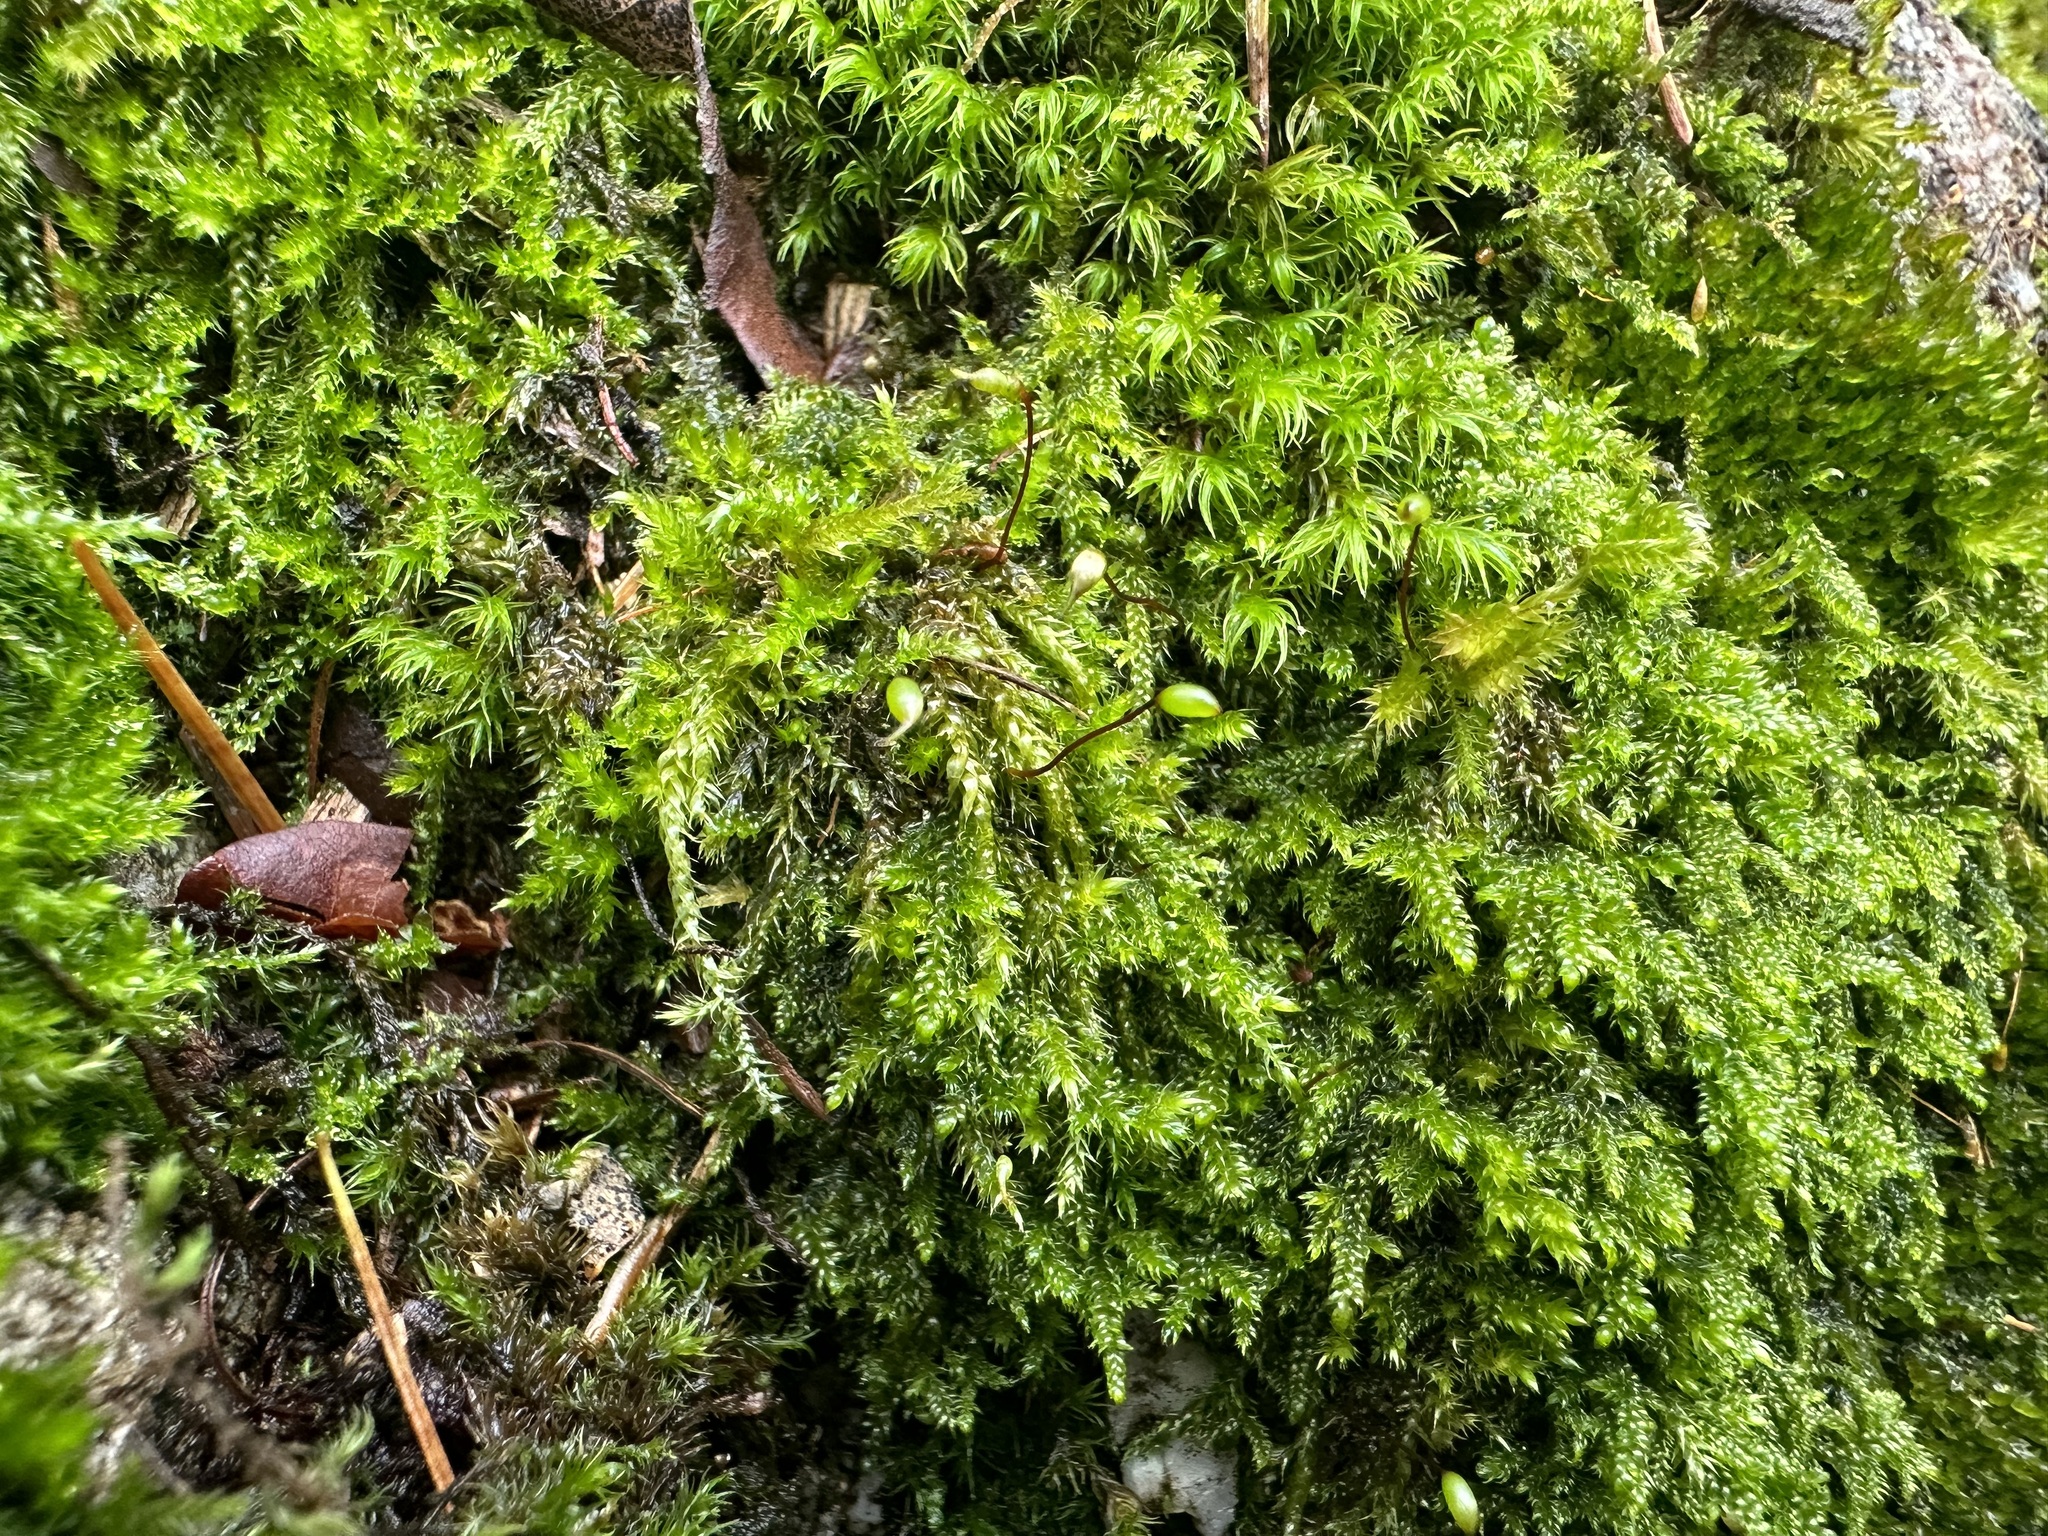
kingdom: Plantae
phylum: Bryophyta
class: Bryopsida
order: Hypnales
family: Brachytheciaceae
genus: Brachytheciastrum
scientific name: Brachytheciastrum velutinum
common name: Velvet feather-moss
